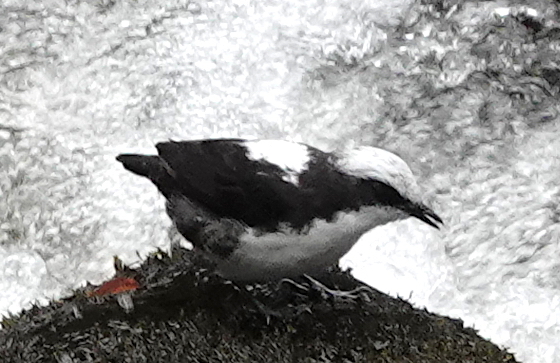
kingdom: Animalia
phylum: Chordata
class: Aves
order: Passeriformes
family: Cinclidae
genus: Cinclus
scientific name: Cinclus leucocephalus
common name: White-capped dipper
